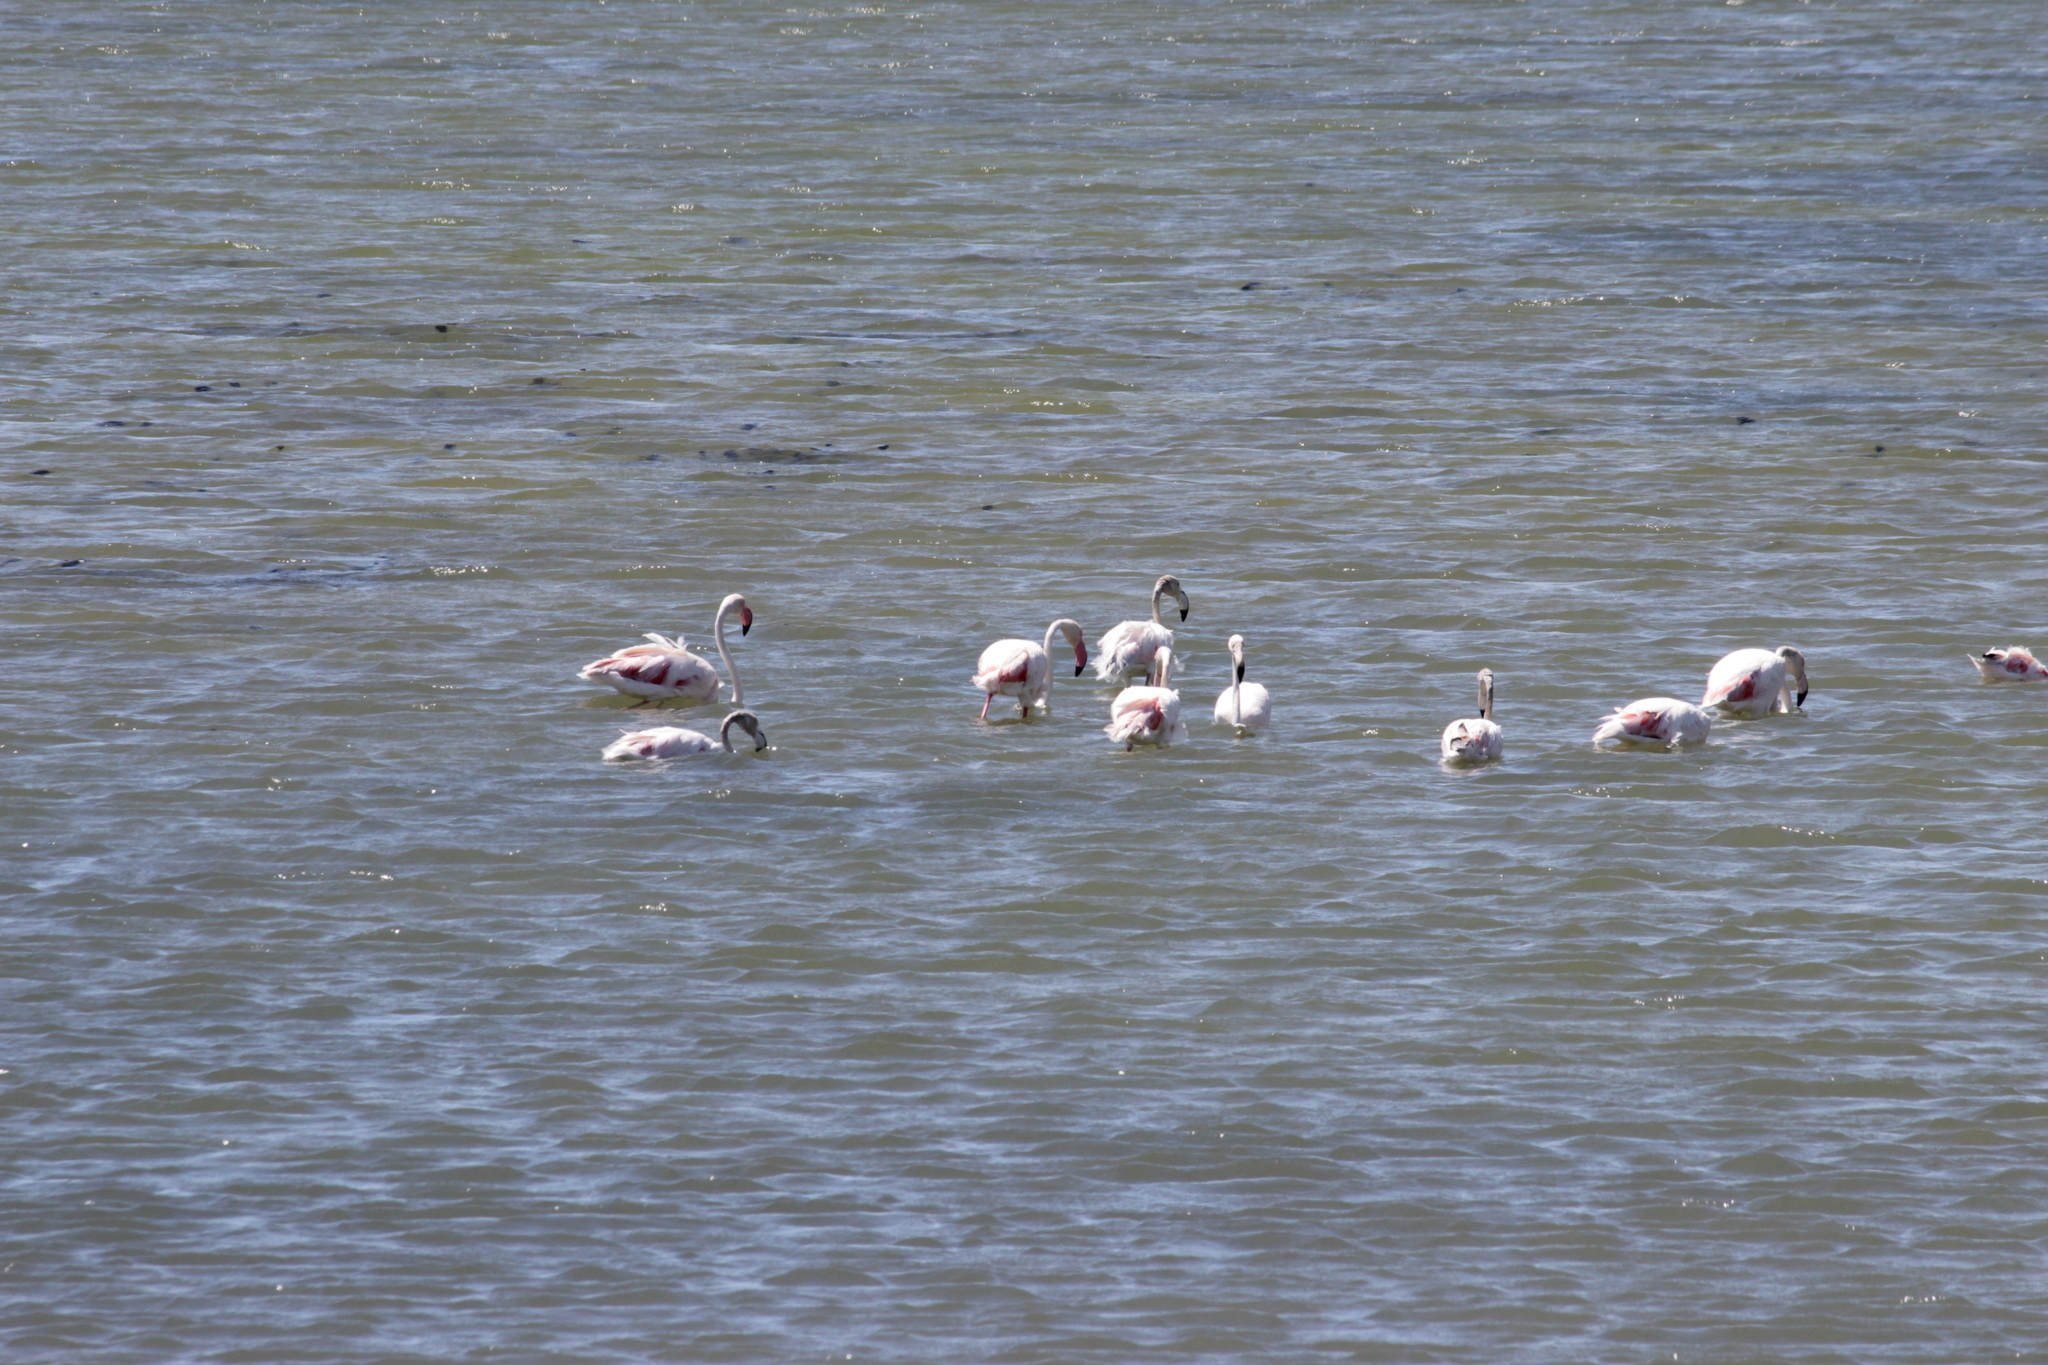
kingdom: Animalia
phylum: Chordata
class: Aves
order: Phoenicopteriformes
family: Phoenicopteridae
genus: Phoenicopterus
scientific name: Phoenicopterus roseus
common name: Greater flamingo
